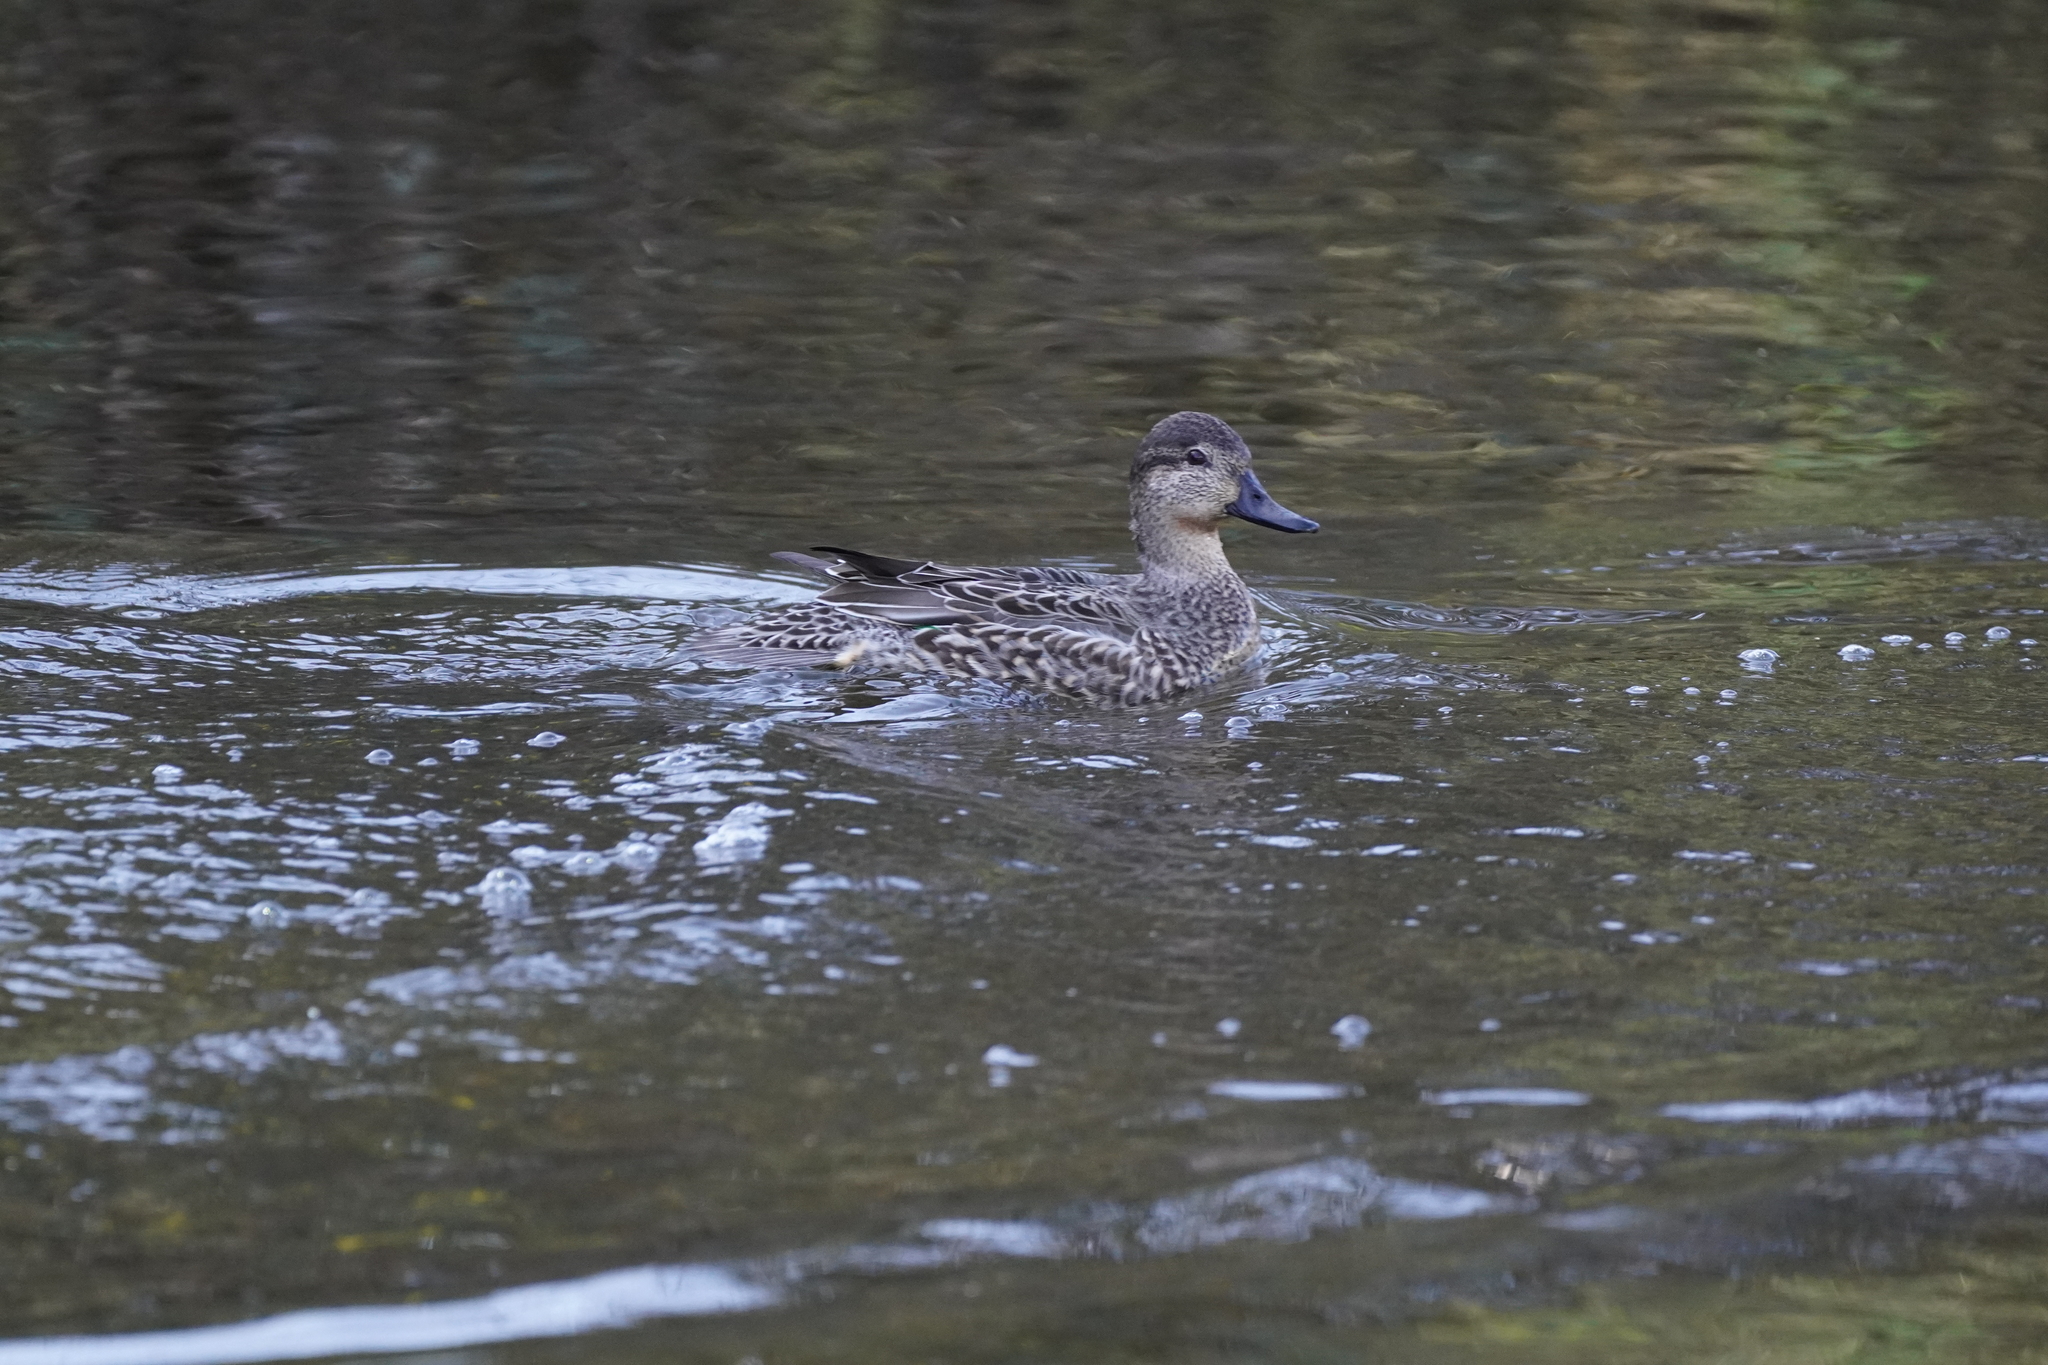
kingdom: Animalia
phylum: Chordata
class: Aves
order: Anseriformes
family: Anatidae
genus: Anas
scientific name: Anas crecca
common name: Eurasian teal
